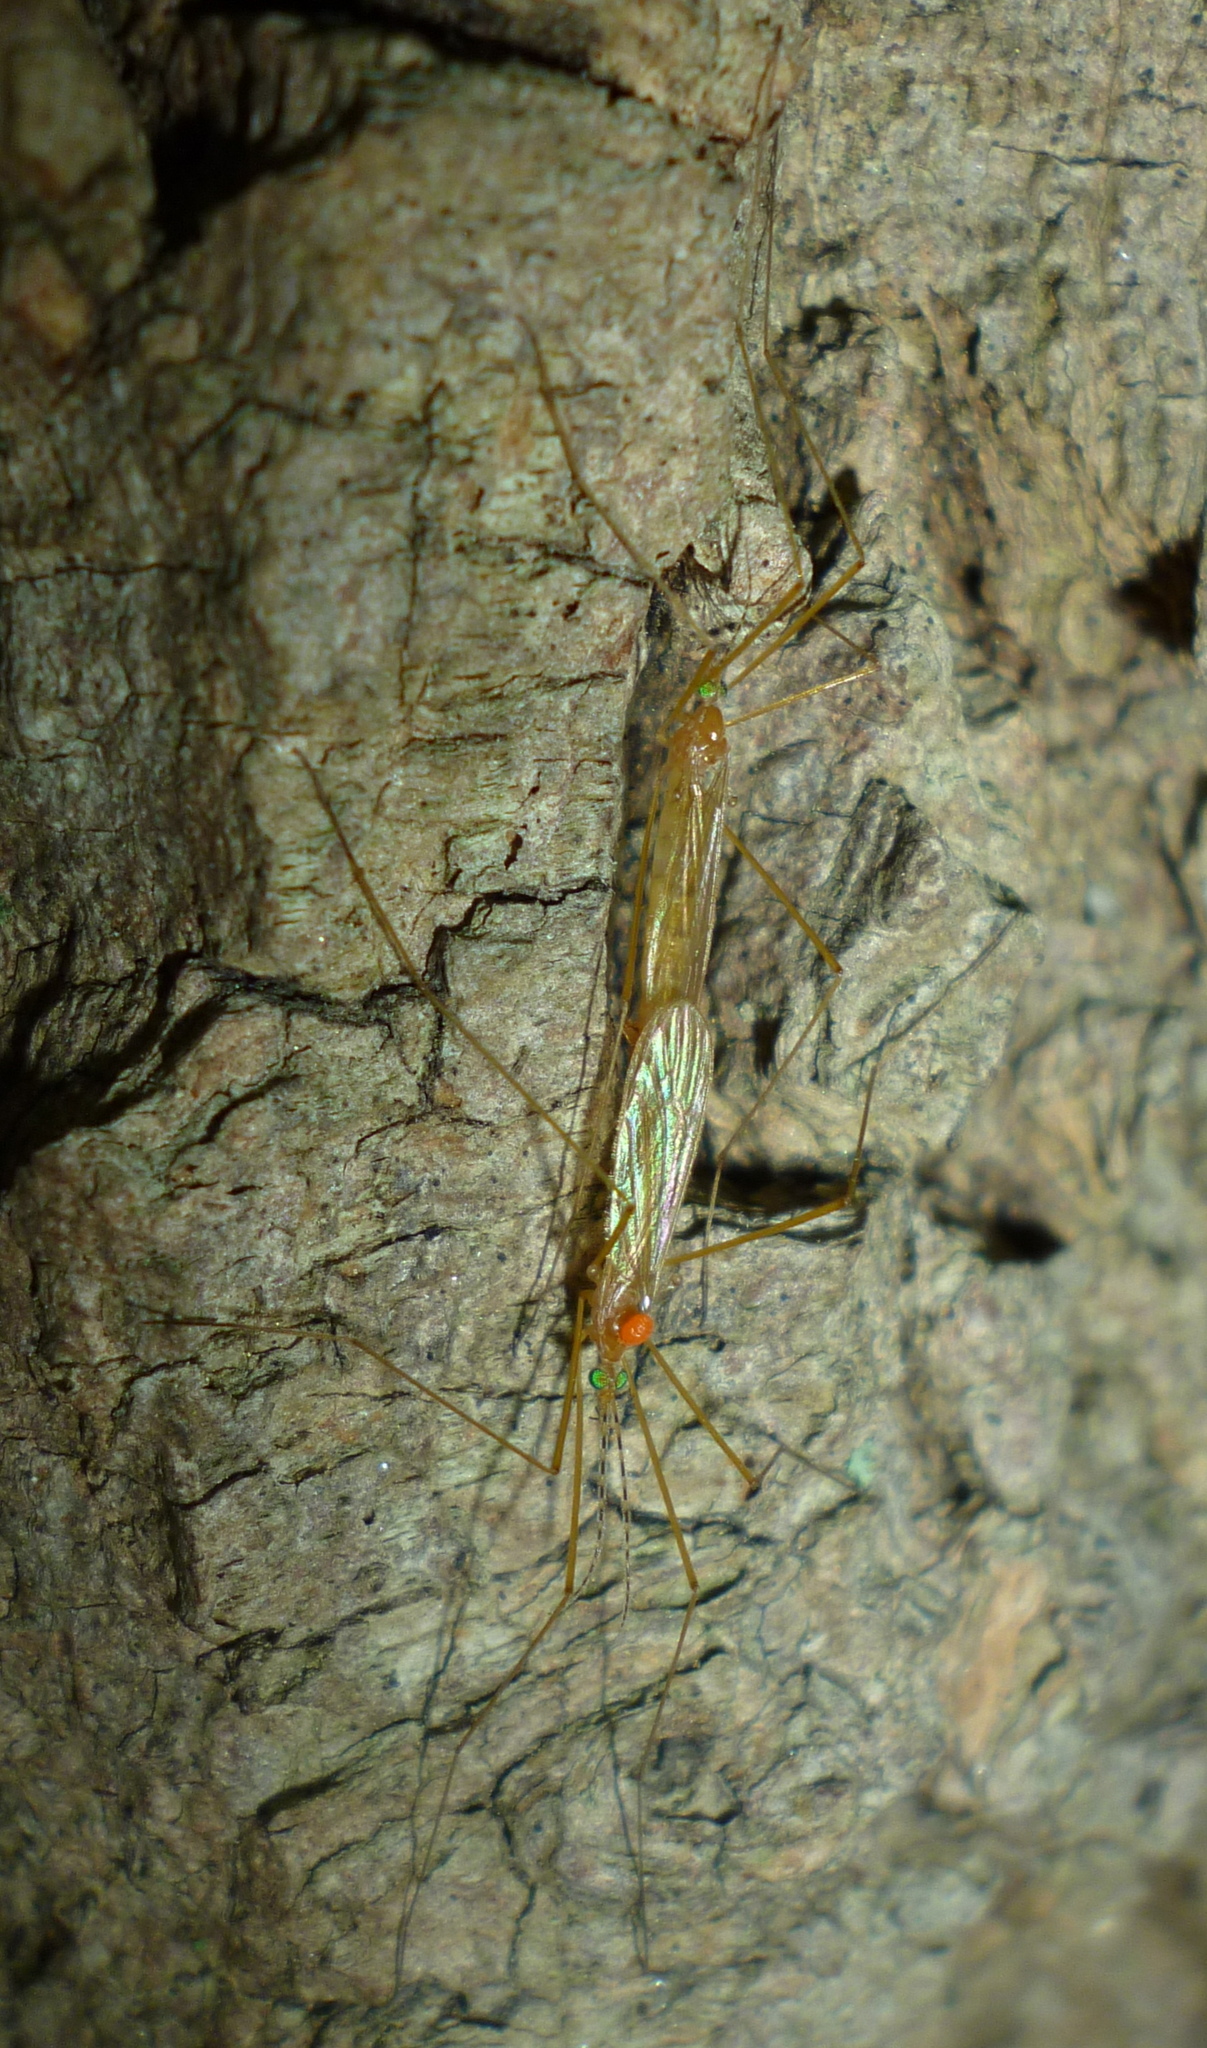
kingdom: Animalia
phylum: Arthropoda
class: Insecta
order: Diptera
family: Limoniidae
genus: Atarba
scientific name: Atarba picticornis
